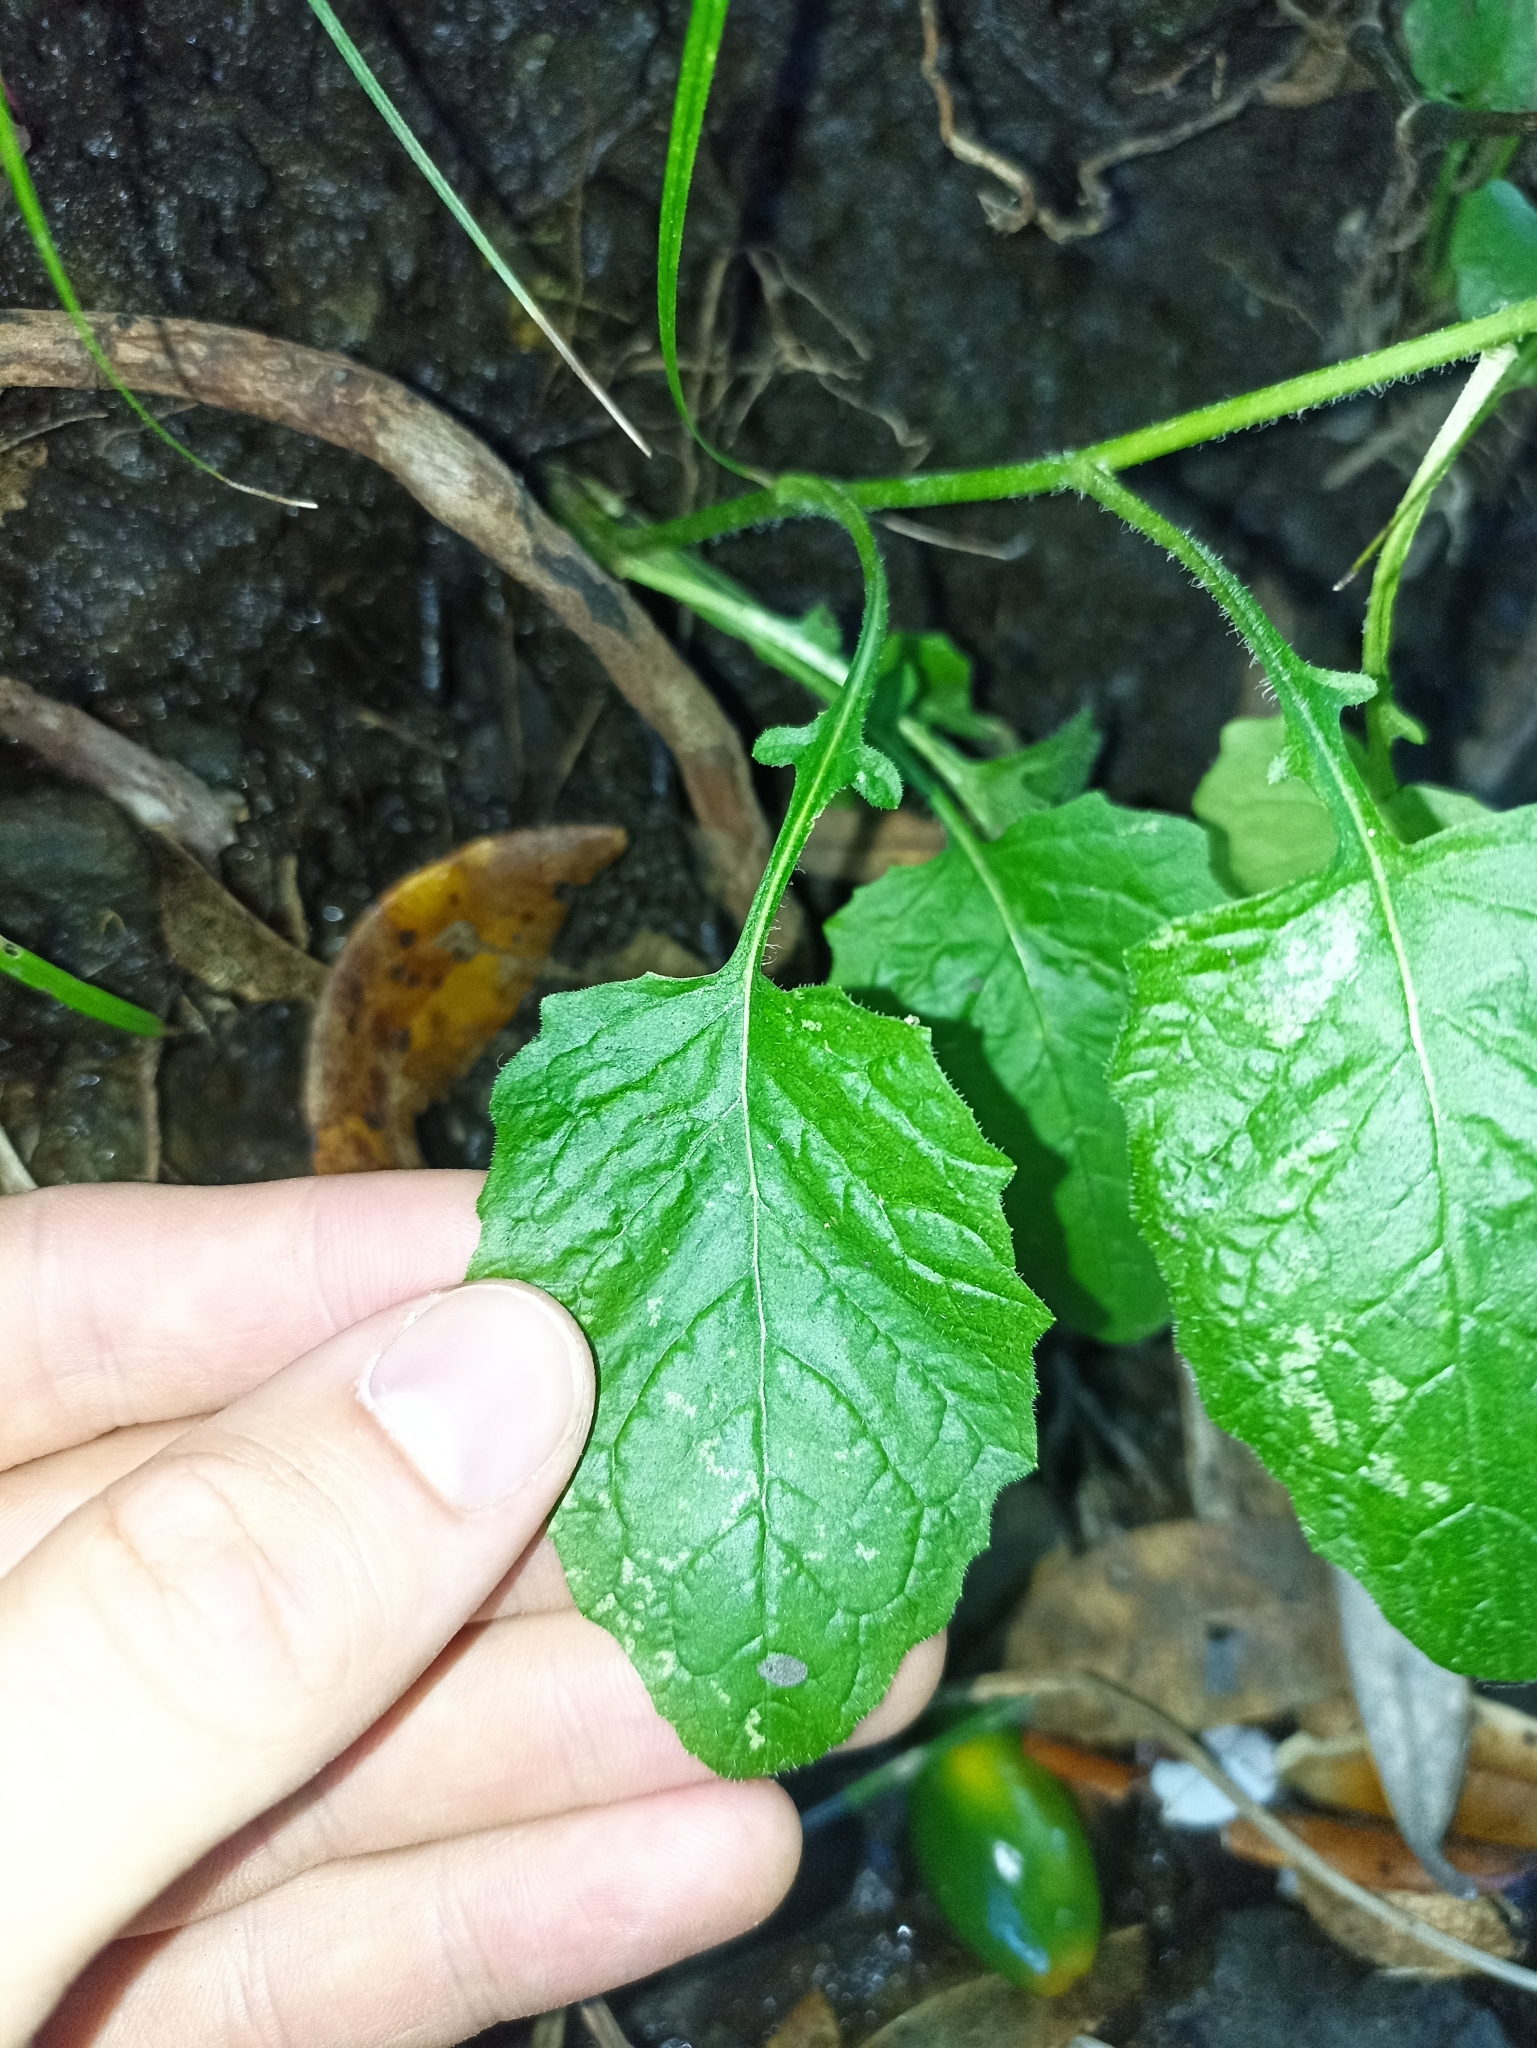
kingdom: Plantae
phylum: Tracheophyta
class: Magnoliopsida
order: Asterales
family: Asteraceae
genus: Lapsana
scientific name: Lapsana communis
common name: Nipplewort
